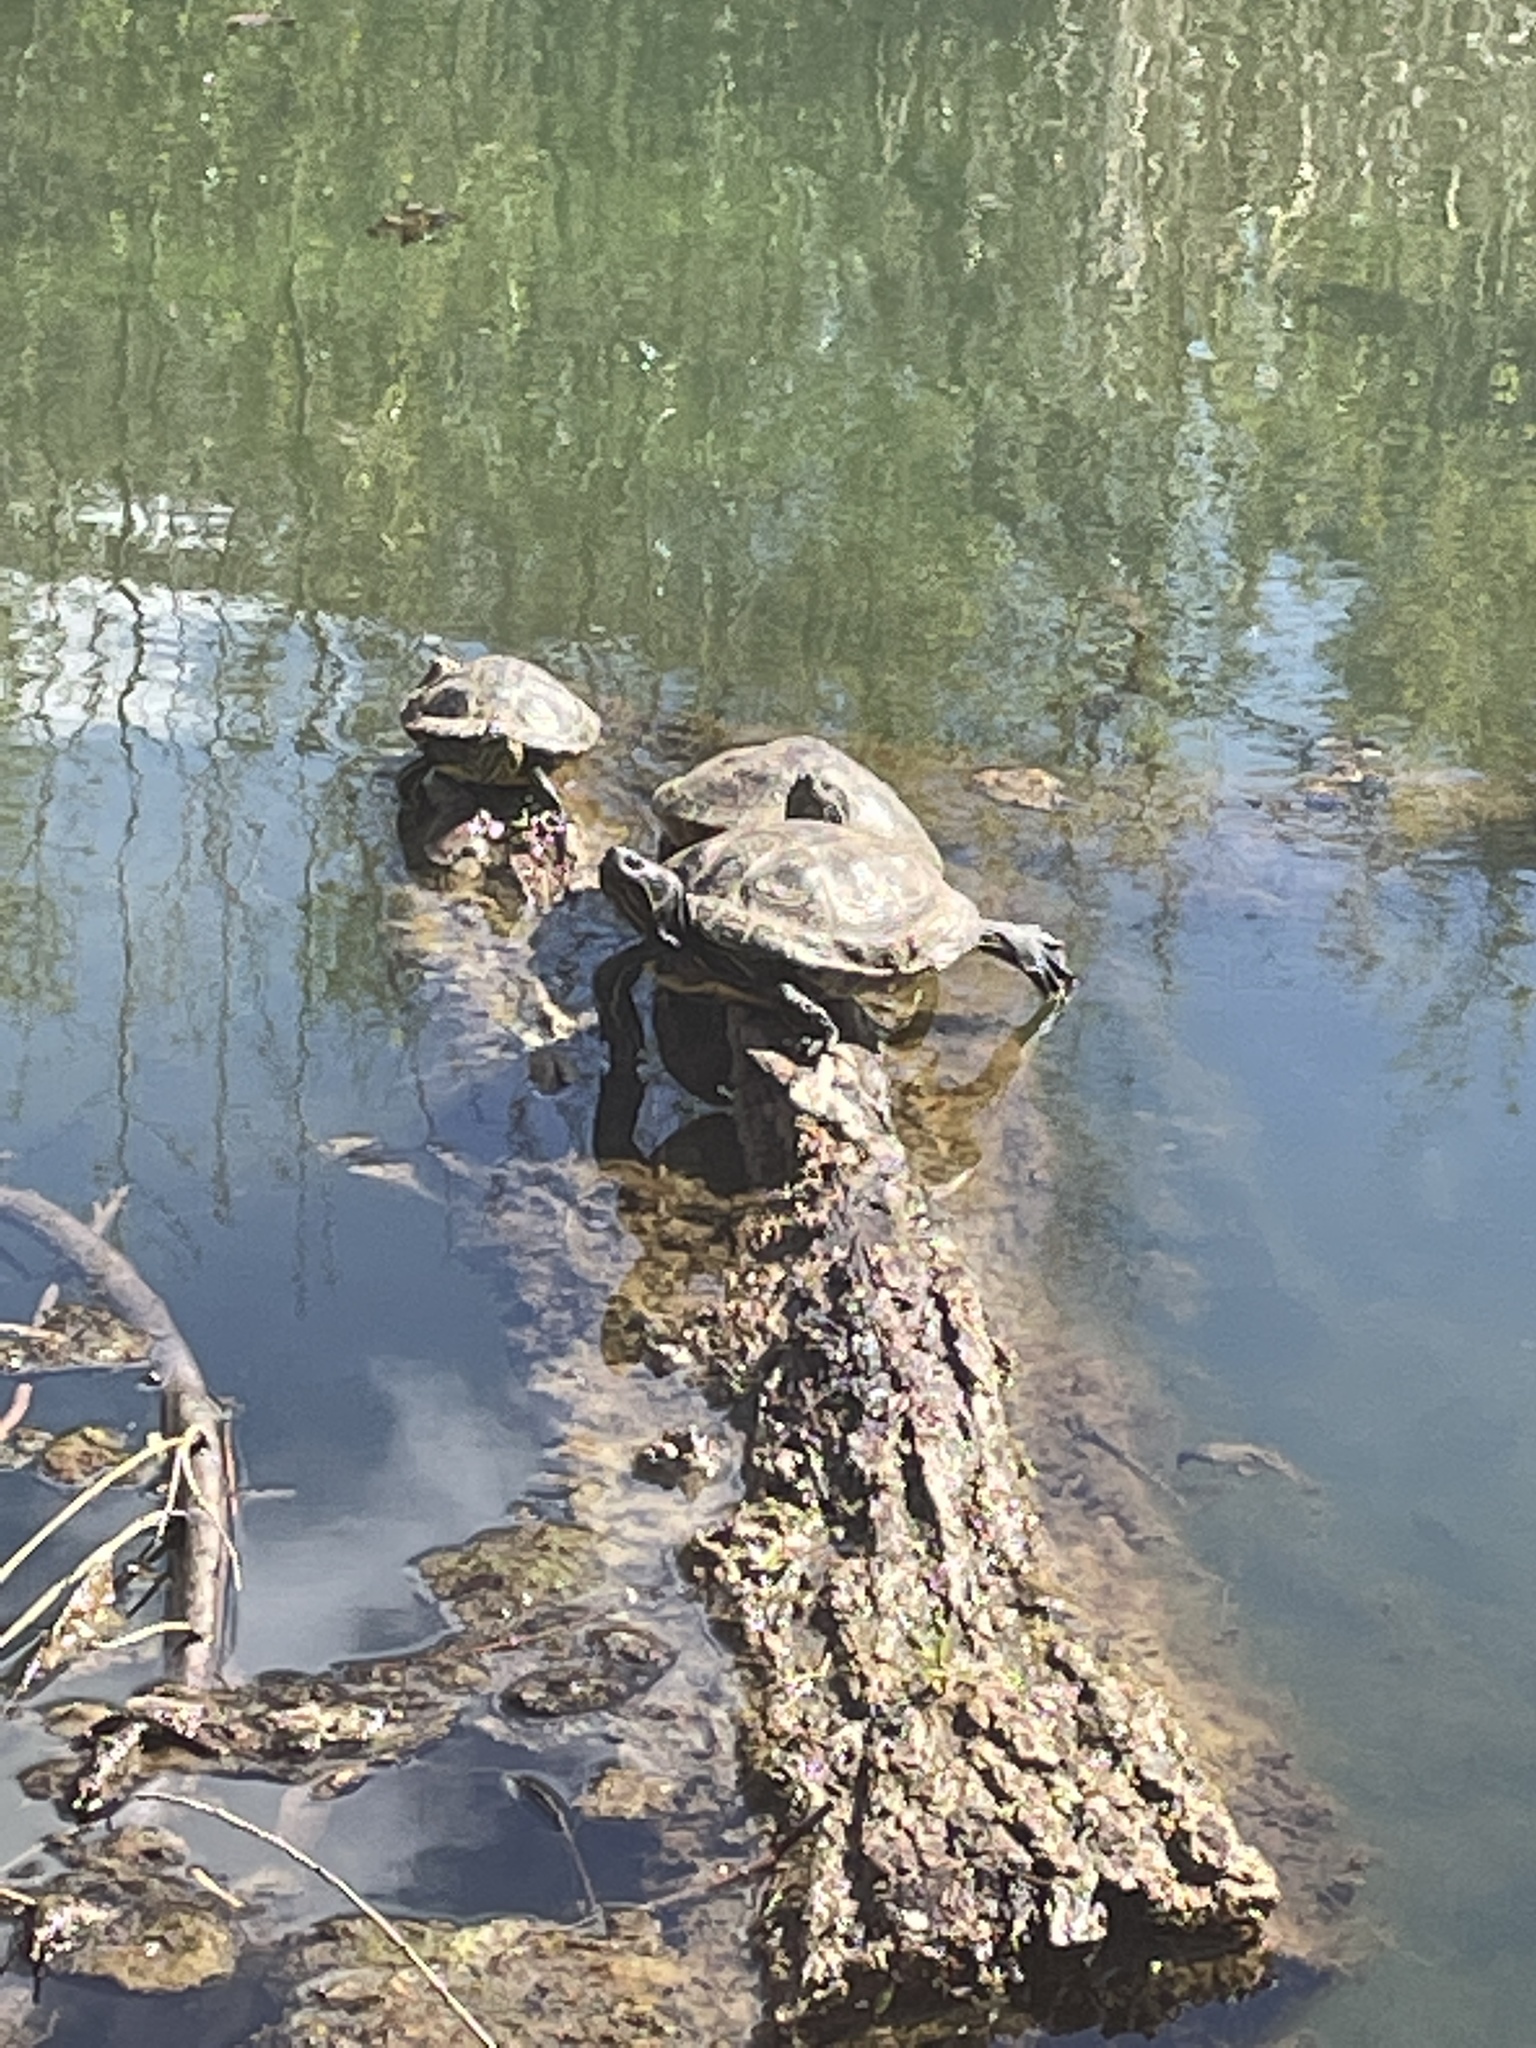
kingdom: Animalia
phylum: Chordata
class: Testudines
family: Emydidae
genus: Trachemys
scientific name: Trachemys scripta
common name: Slider
